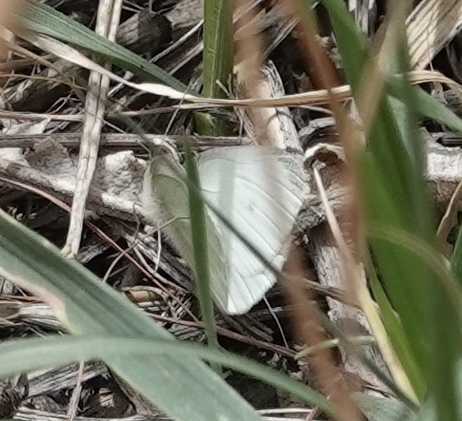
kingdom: Animalia
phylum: Arthropoda
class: Insecta
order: Lepidoptera
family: Pieridae
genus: Pieris
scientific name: Pieris rapae
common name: Small white
